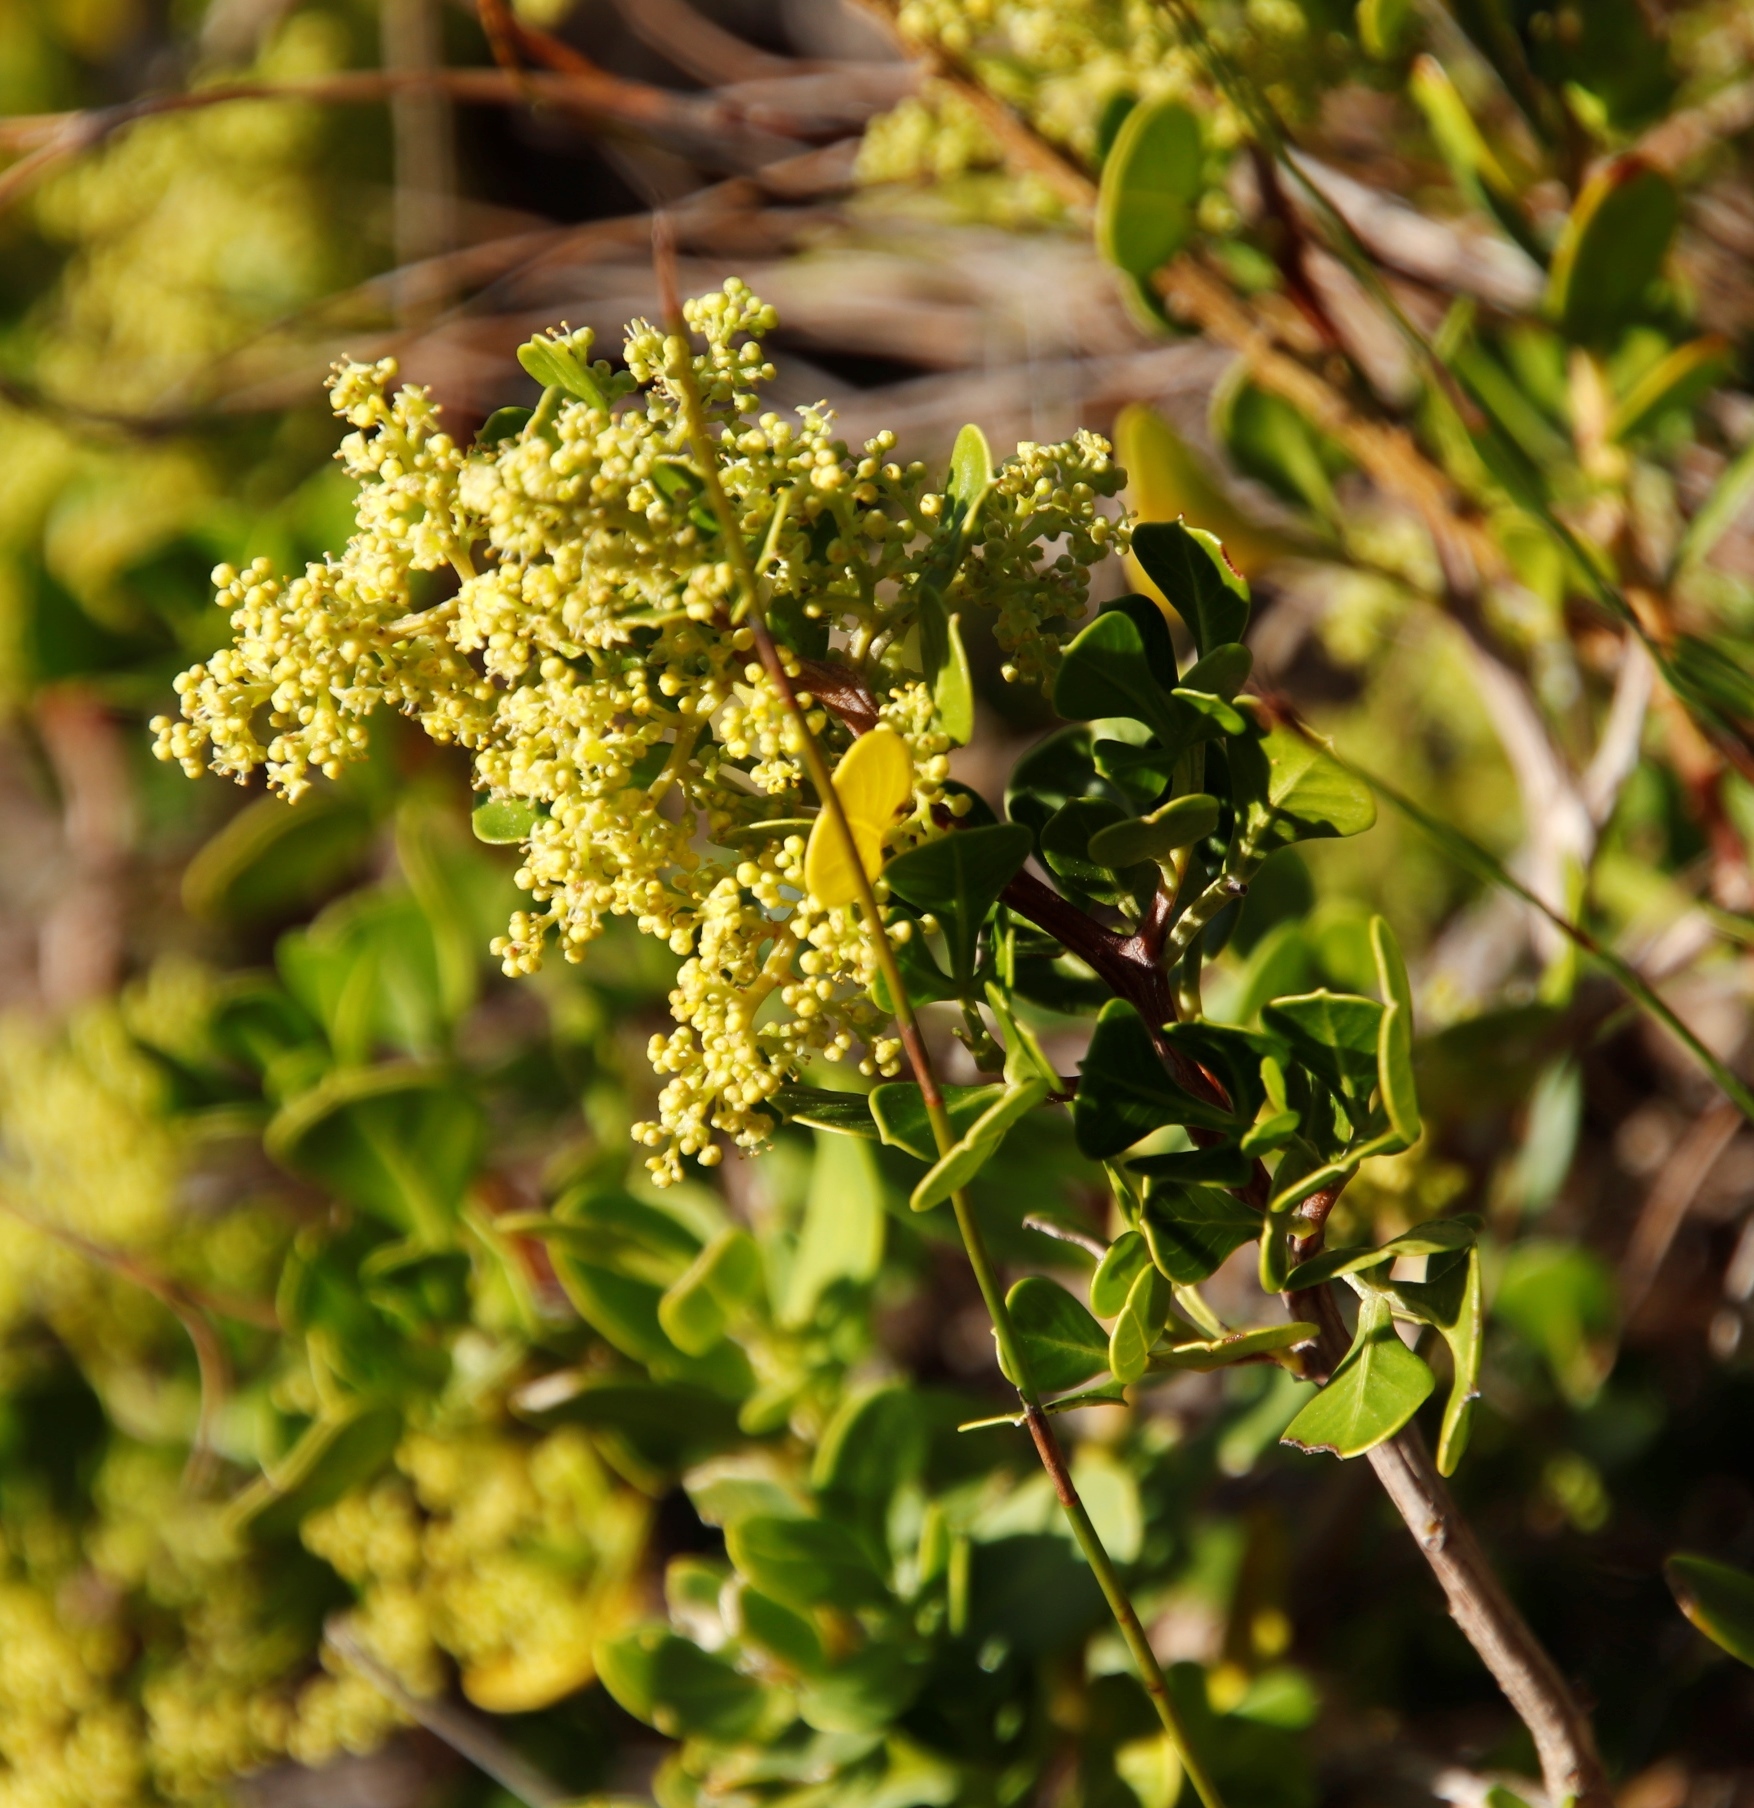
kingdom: Plantae
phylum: Tracheophyta
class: Magnoliopsida
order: Sapindales
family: Anacardiaceae
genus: Searsia
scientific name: Searsia glauca
